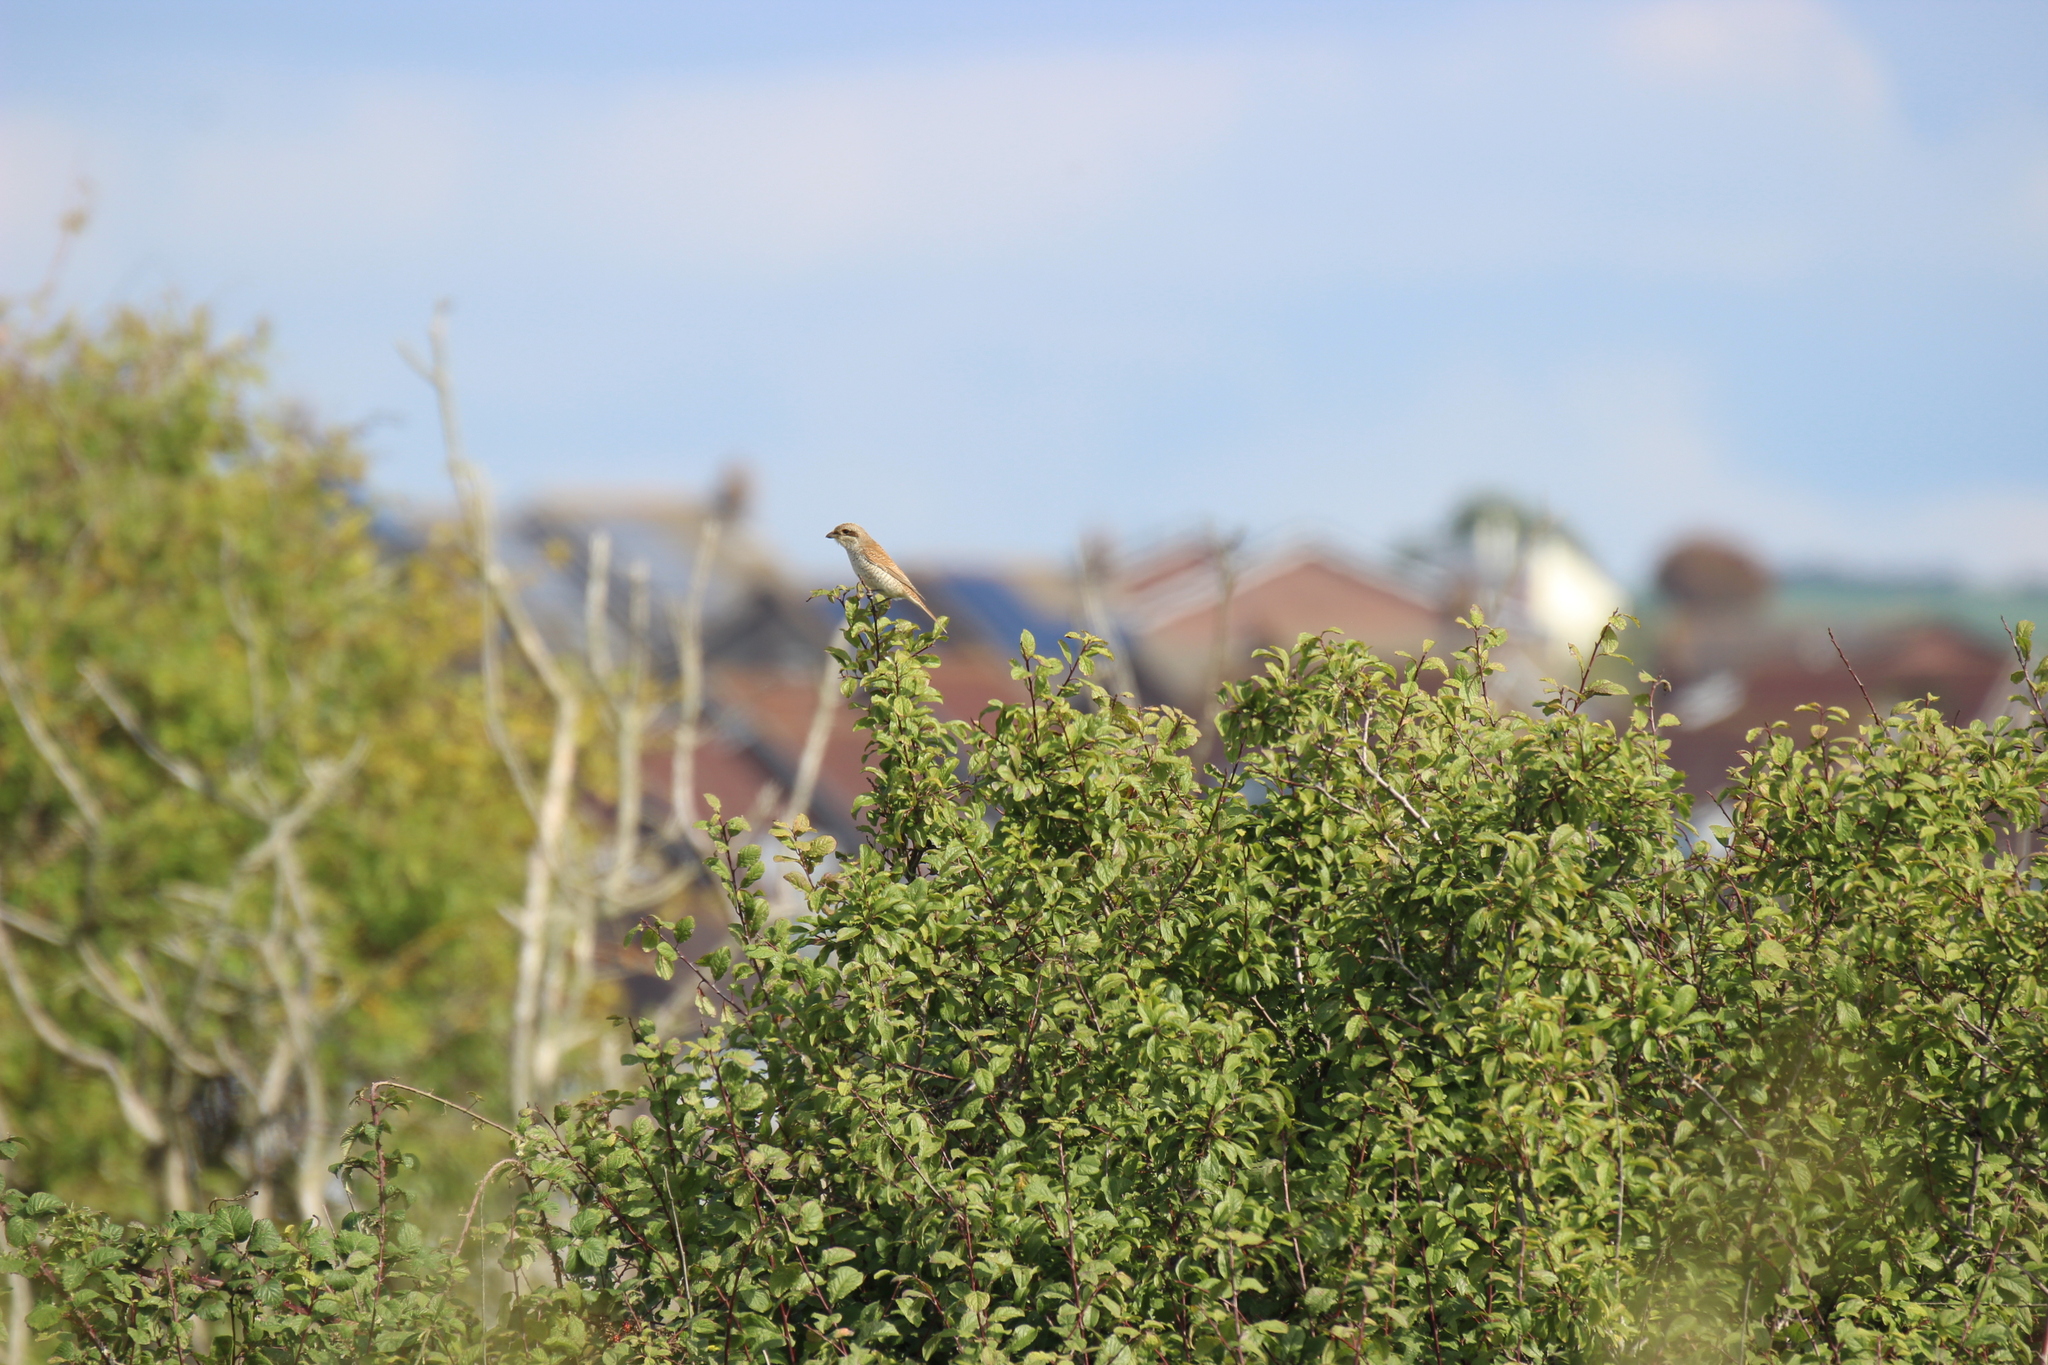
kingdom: Animalia
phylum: Chordata
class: Aves
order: Passeriformes
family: Laniidae
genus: Lanius
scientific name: Lanius collurio
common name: Red-backed shrike
